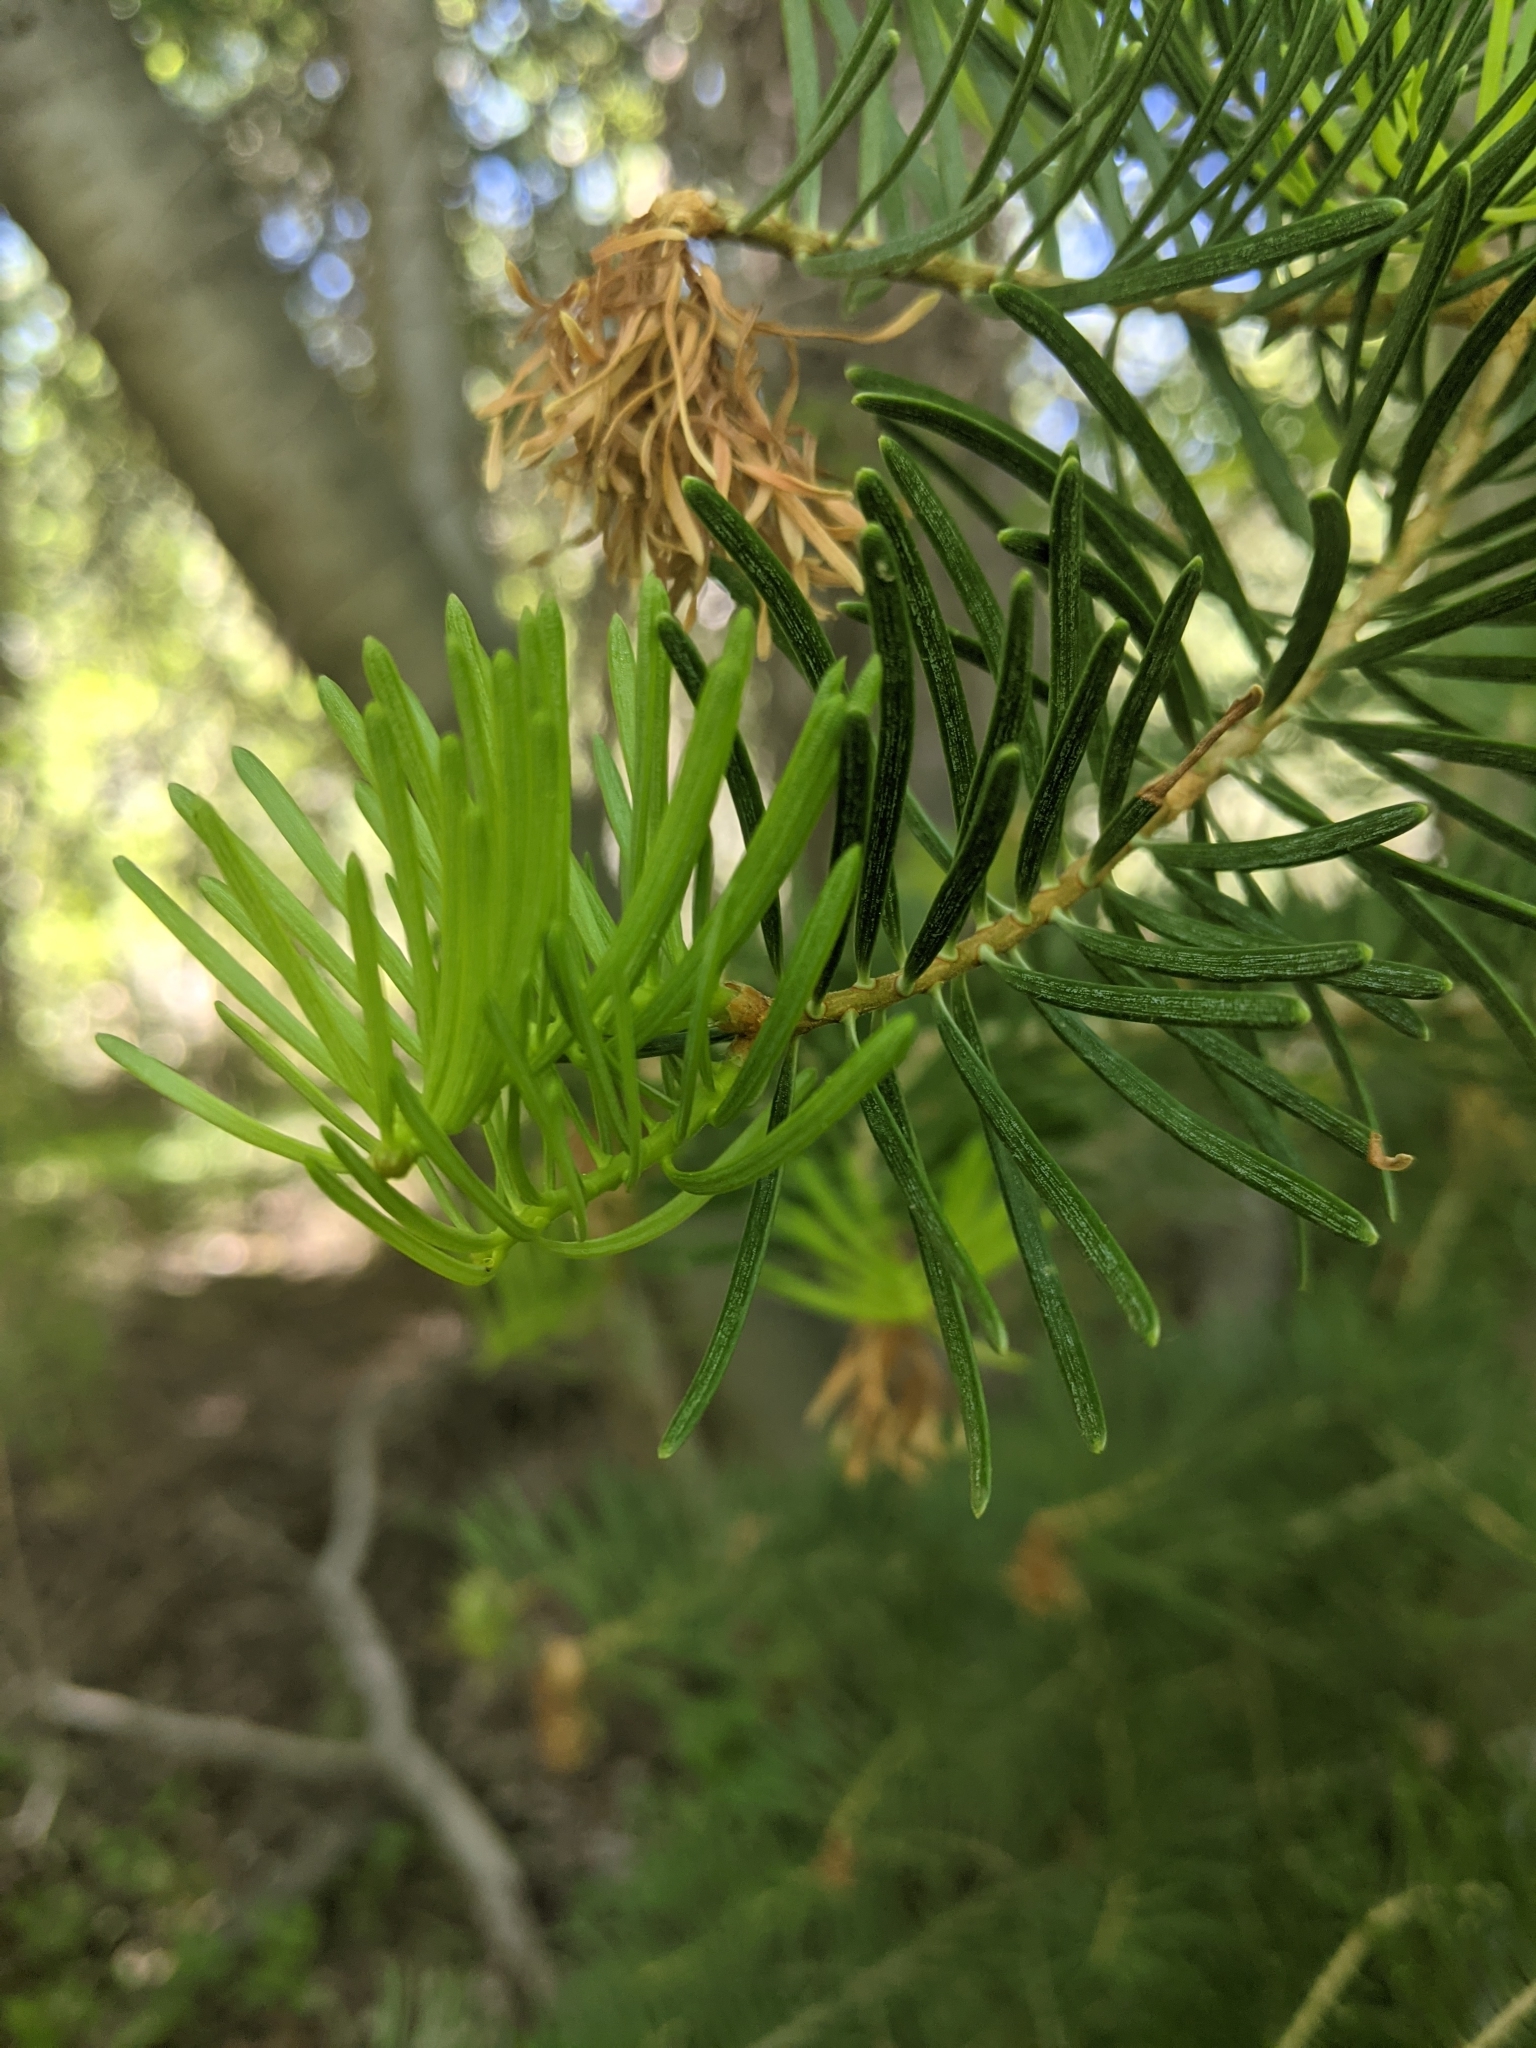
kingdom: Plantae
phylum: Tracheophyta
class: Pinopsida
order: Pinales
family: Pinaceae
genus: Abies
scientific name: Abies concolor
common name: Colorado fir
